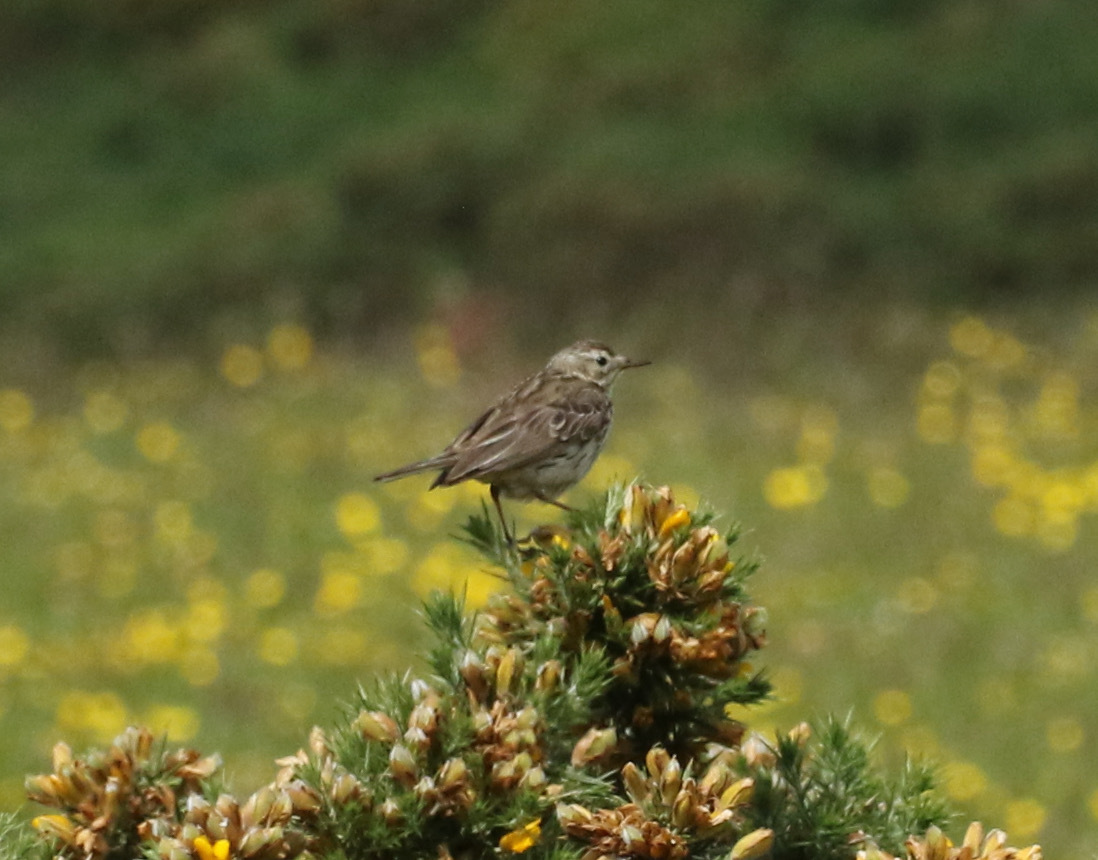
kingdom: Animalia
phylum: Chordata
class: Aves
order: Passeriformes
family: Motacillidae
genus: Anthus
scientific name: Anthus pratensis
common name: Meadow pipit
